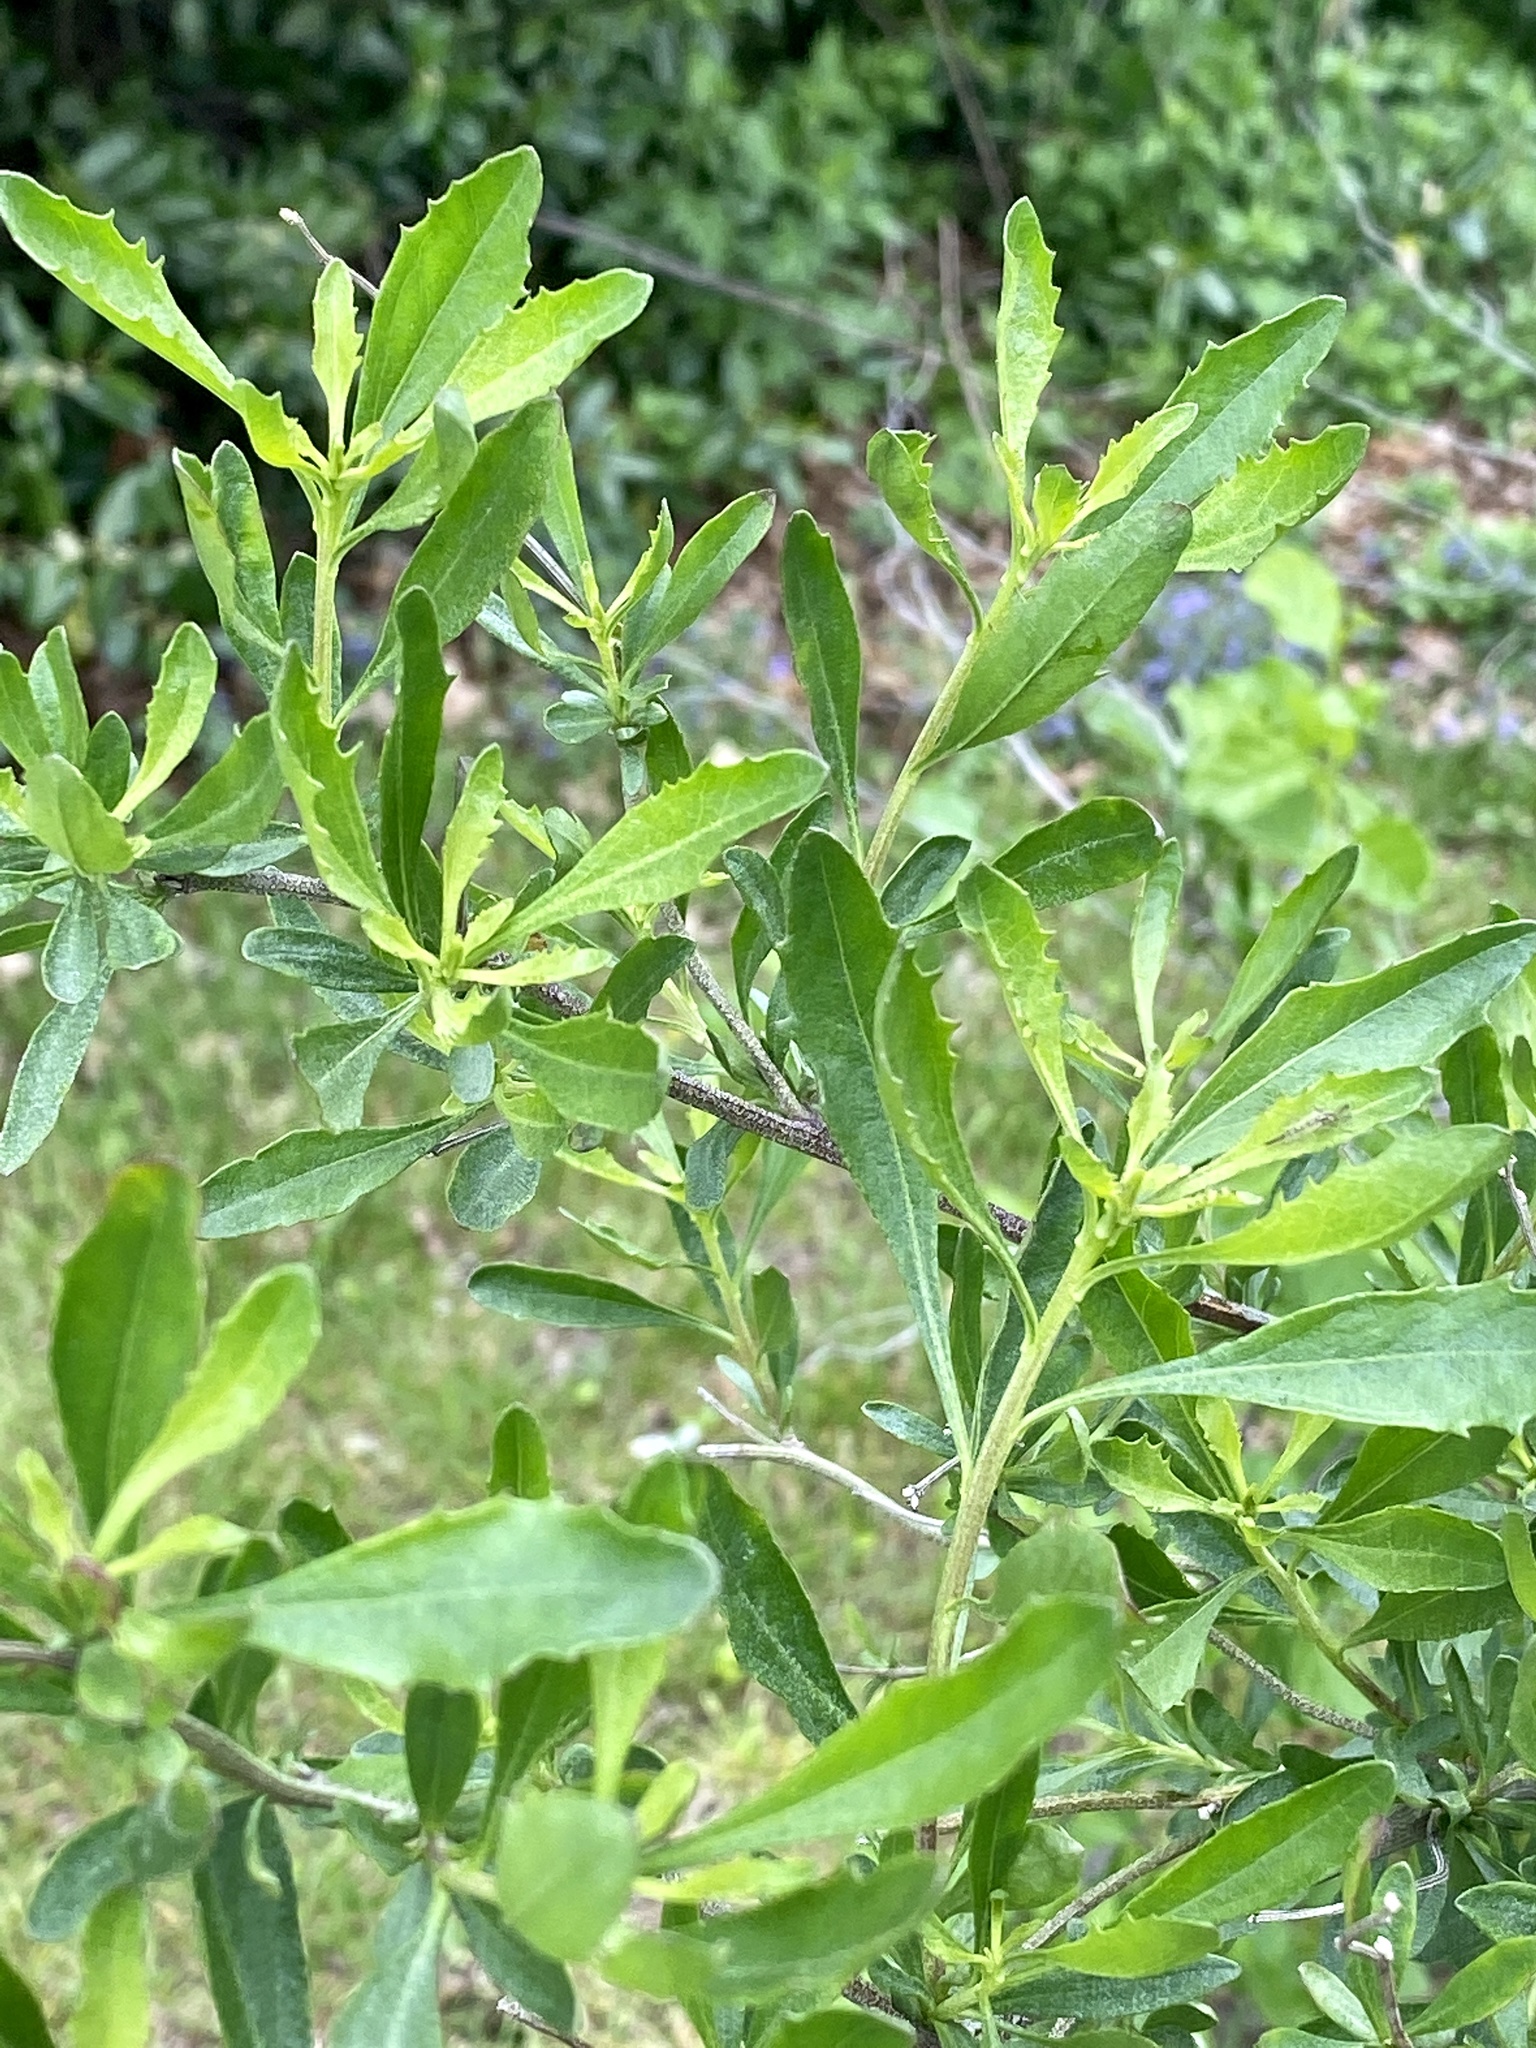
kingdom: Plantae
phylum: Tracheophyta
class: Magnoliopsida
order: Asterales
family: Asteraceae
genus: Baccharis
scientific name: Baccharis halimifolia
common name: Eastern baccharis
